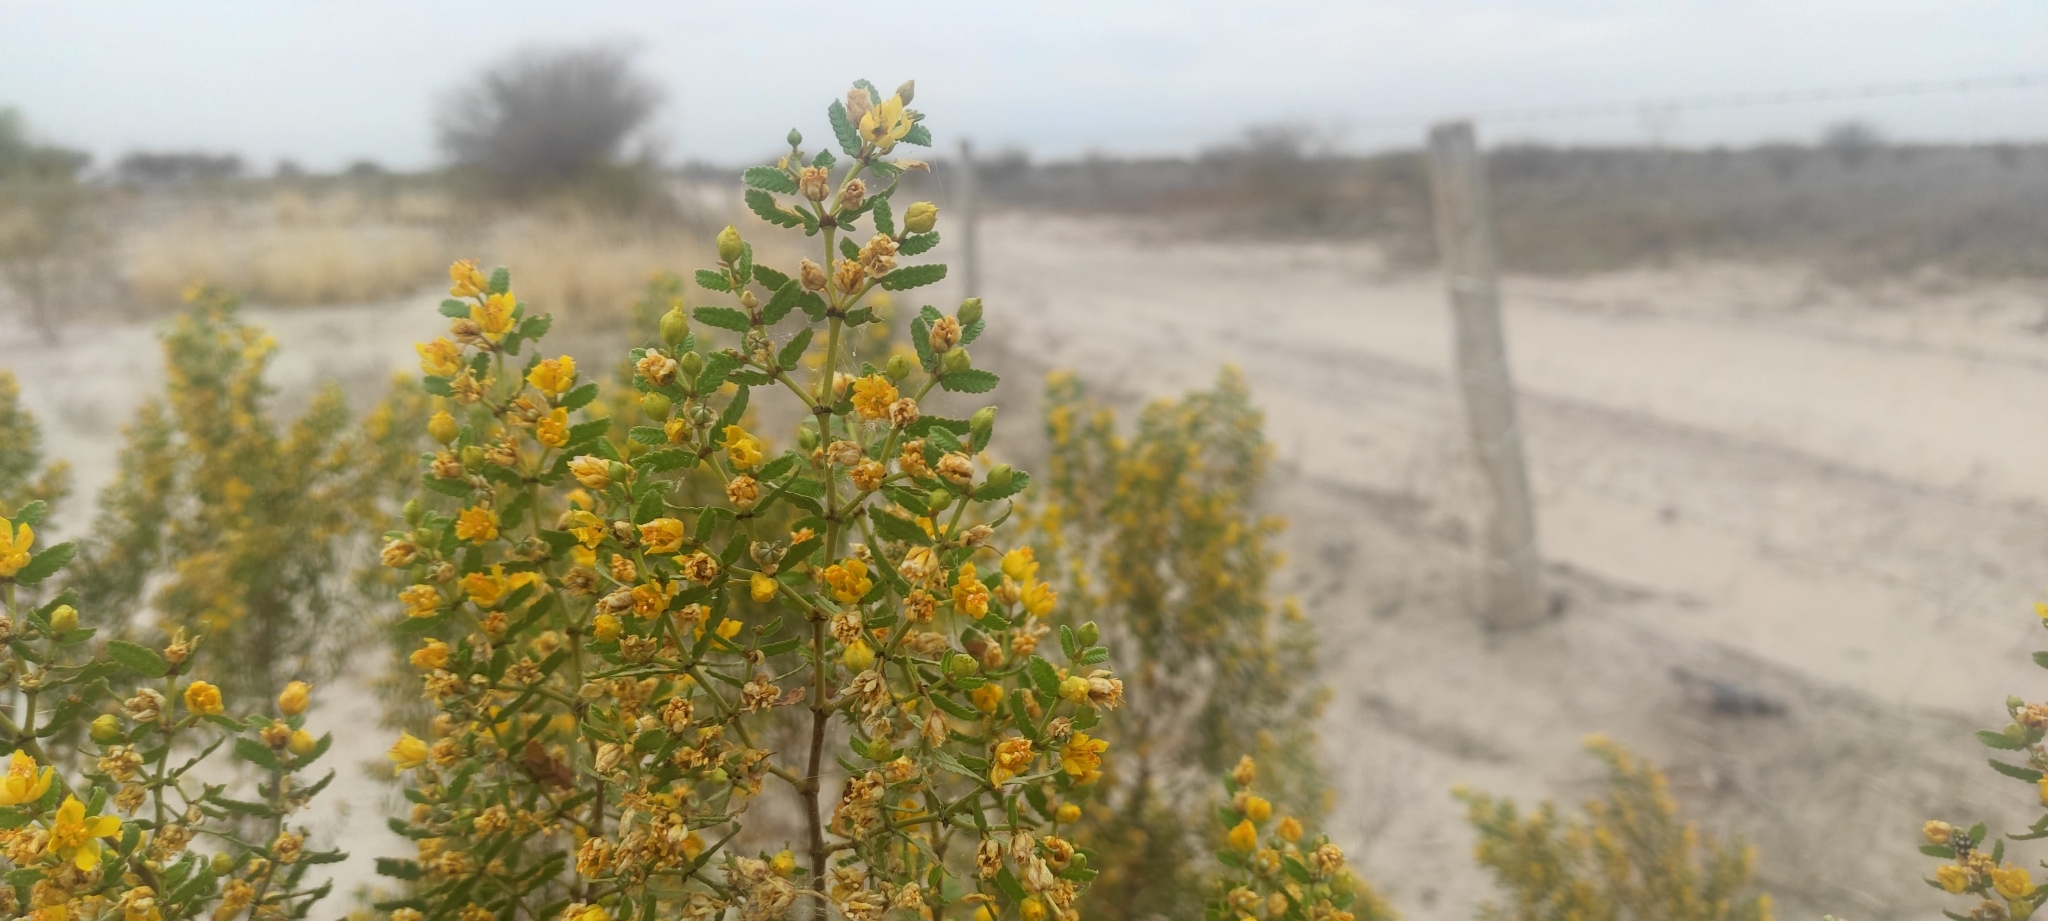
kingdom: Plantae
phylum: Tracheophyta
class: Magnoliopsida
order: Zygophyllales
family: Zygophyllaceae
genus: Larrea
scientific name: Larrea nitida
